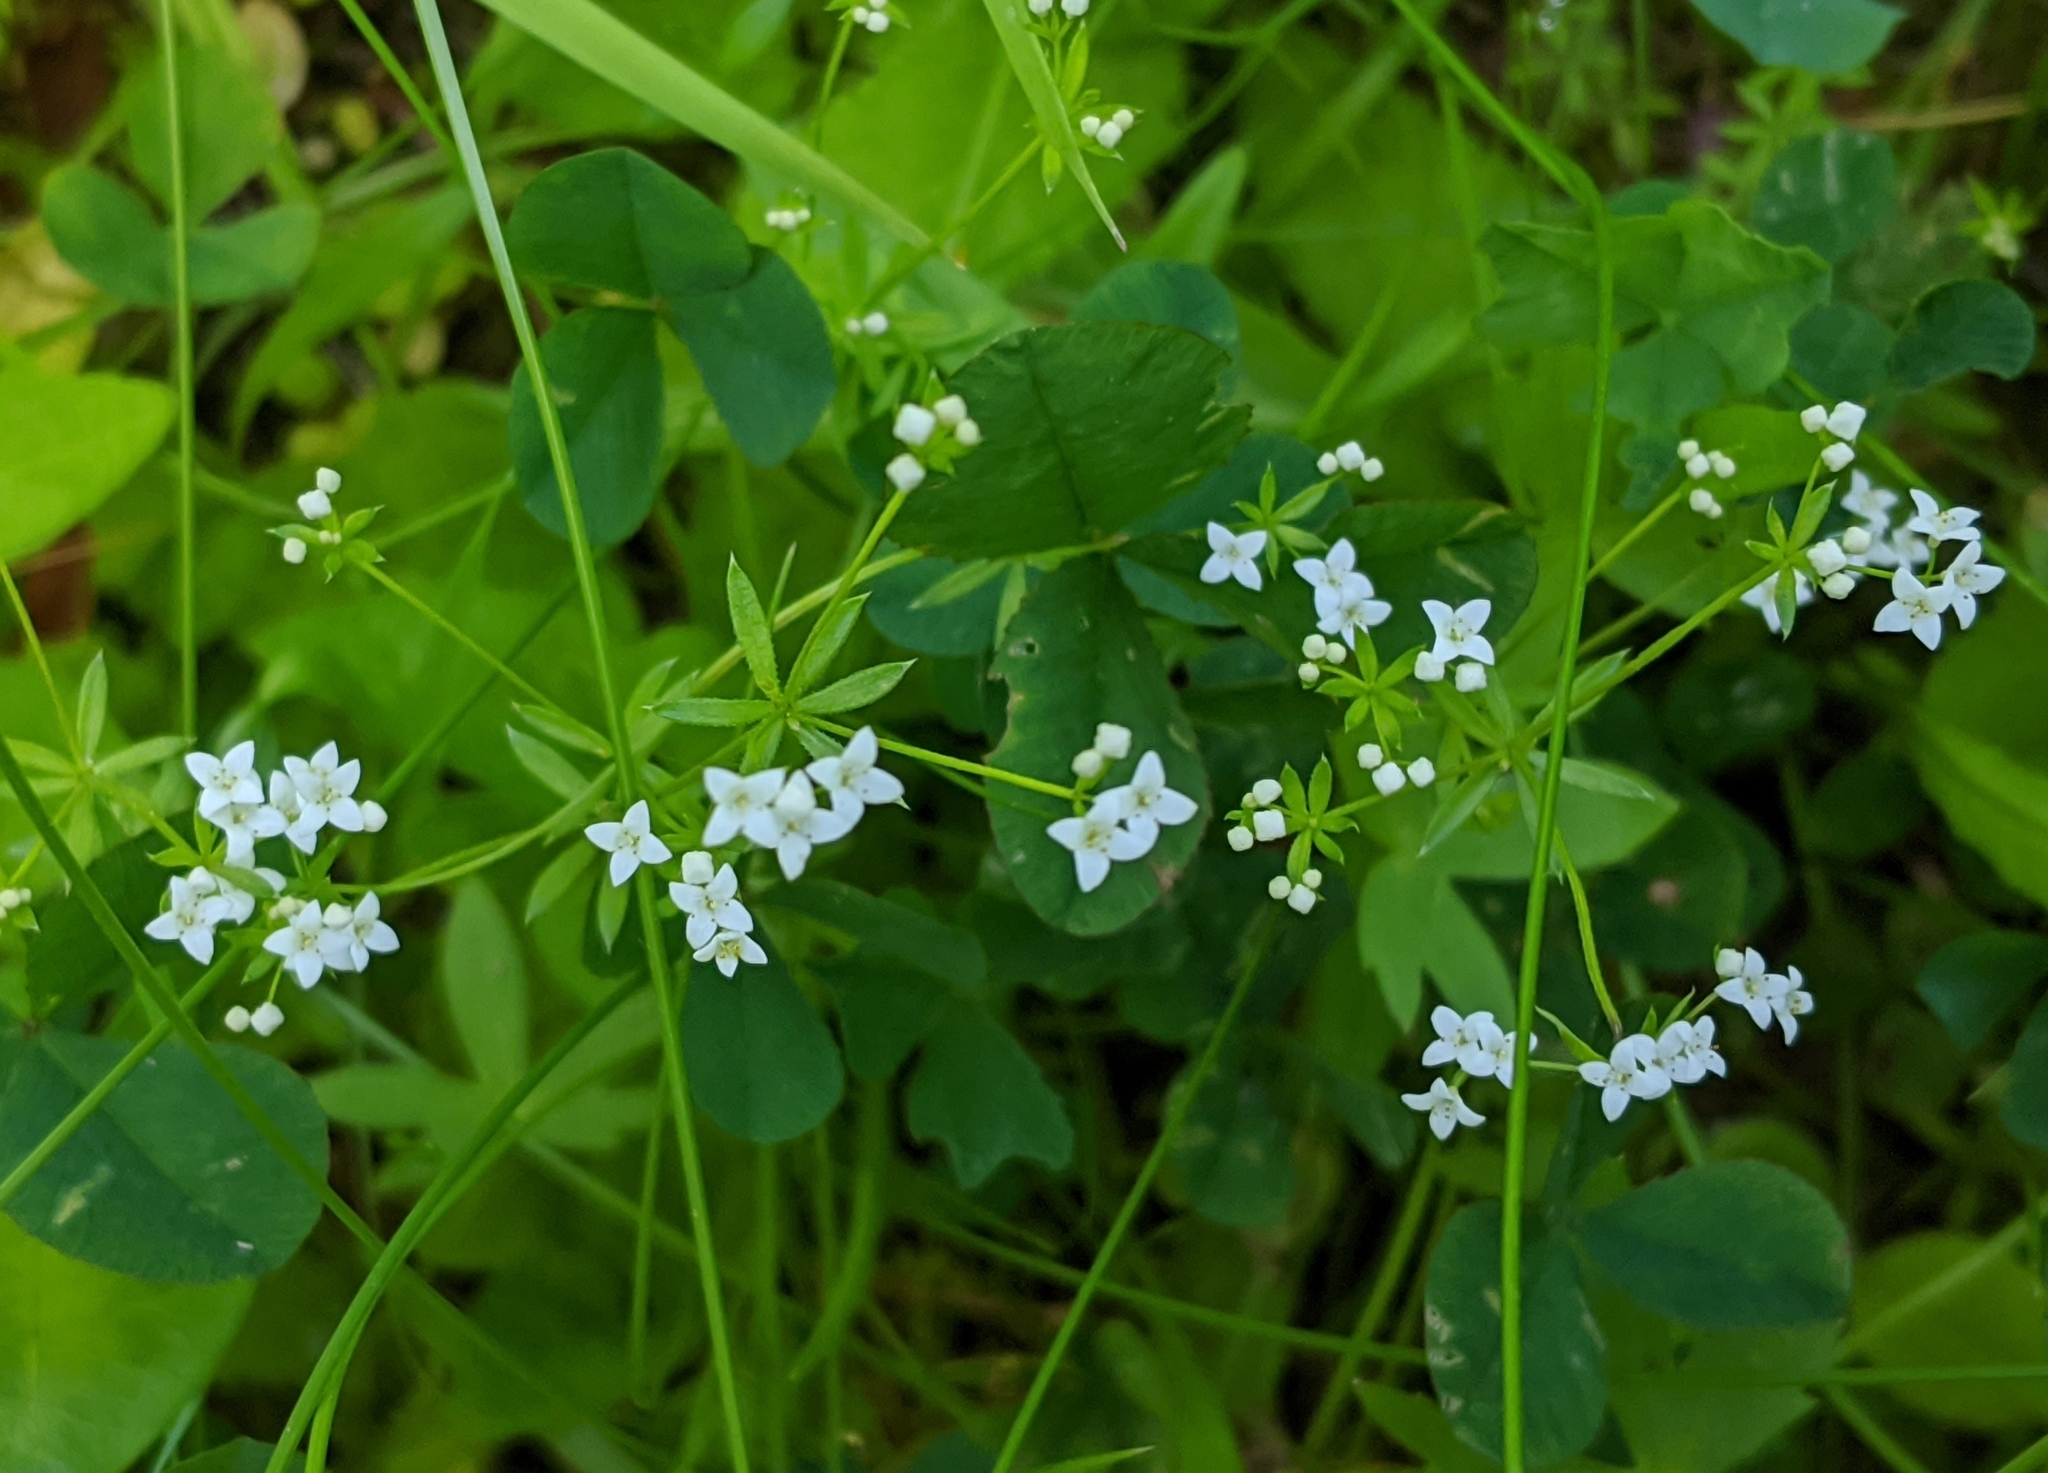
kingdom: Plantae
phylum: Tracheophyta
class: Magnoliopsida
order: Gentianales
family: Rubiaceae
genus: Galium
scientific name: Galium uliginosum
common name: Fen bedstraw
